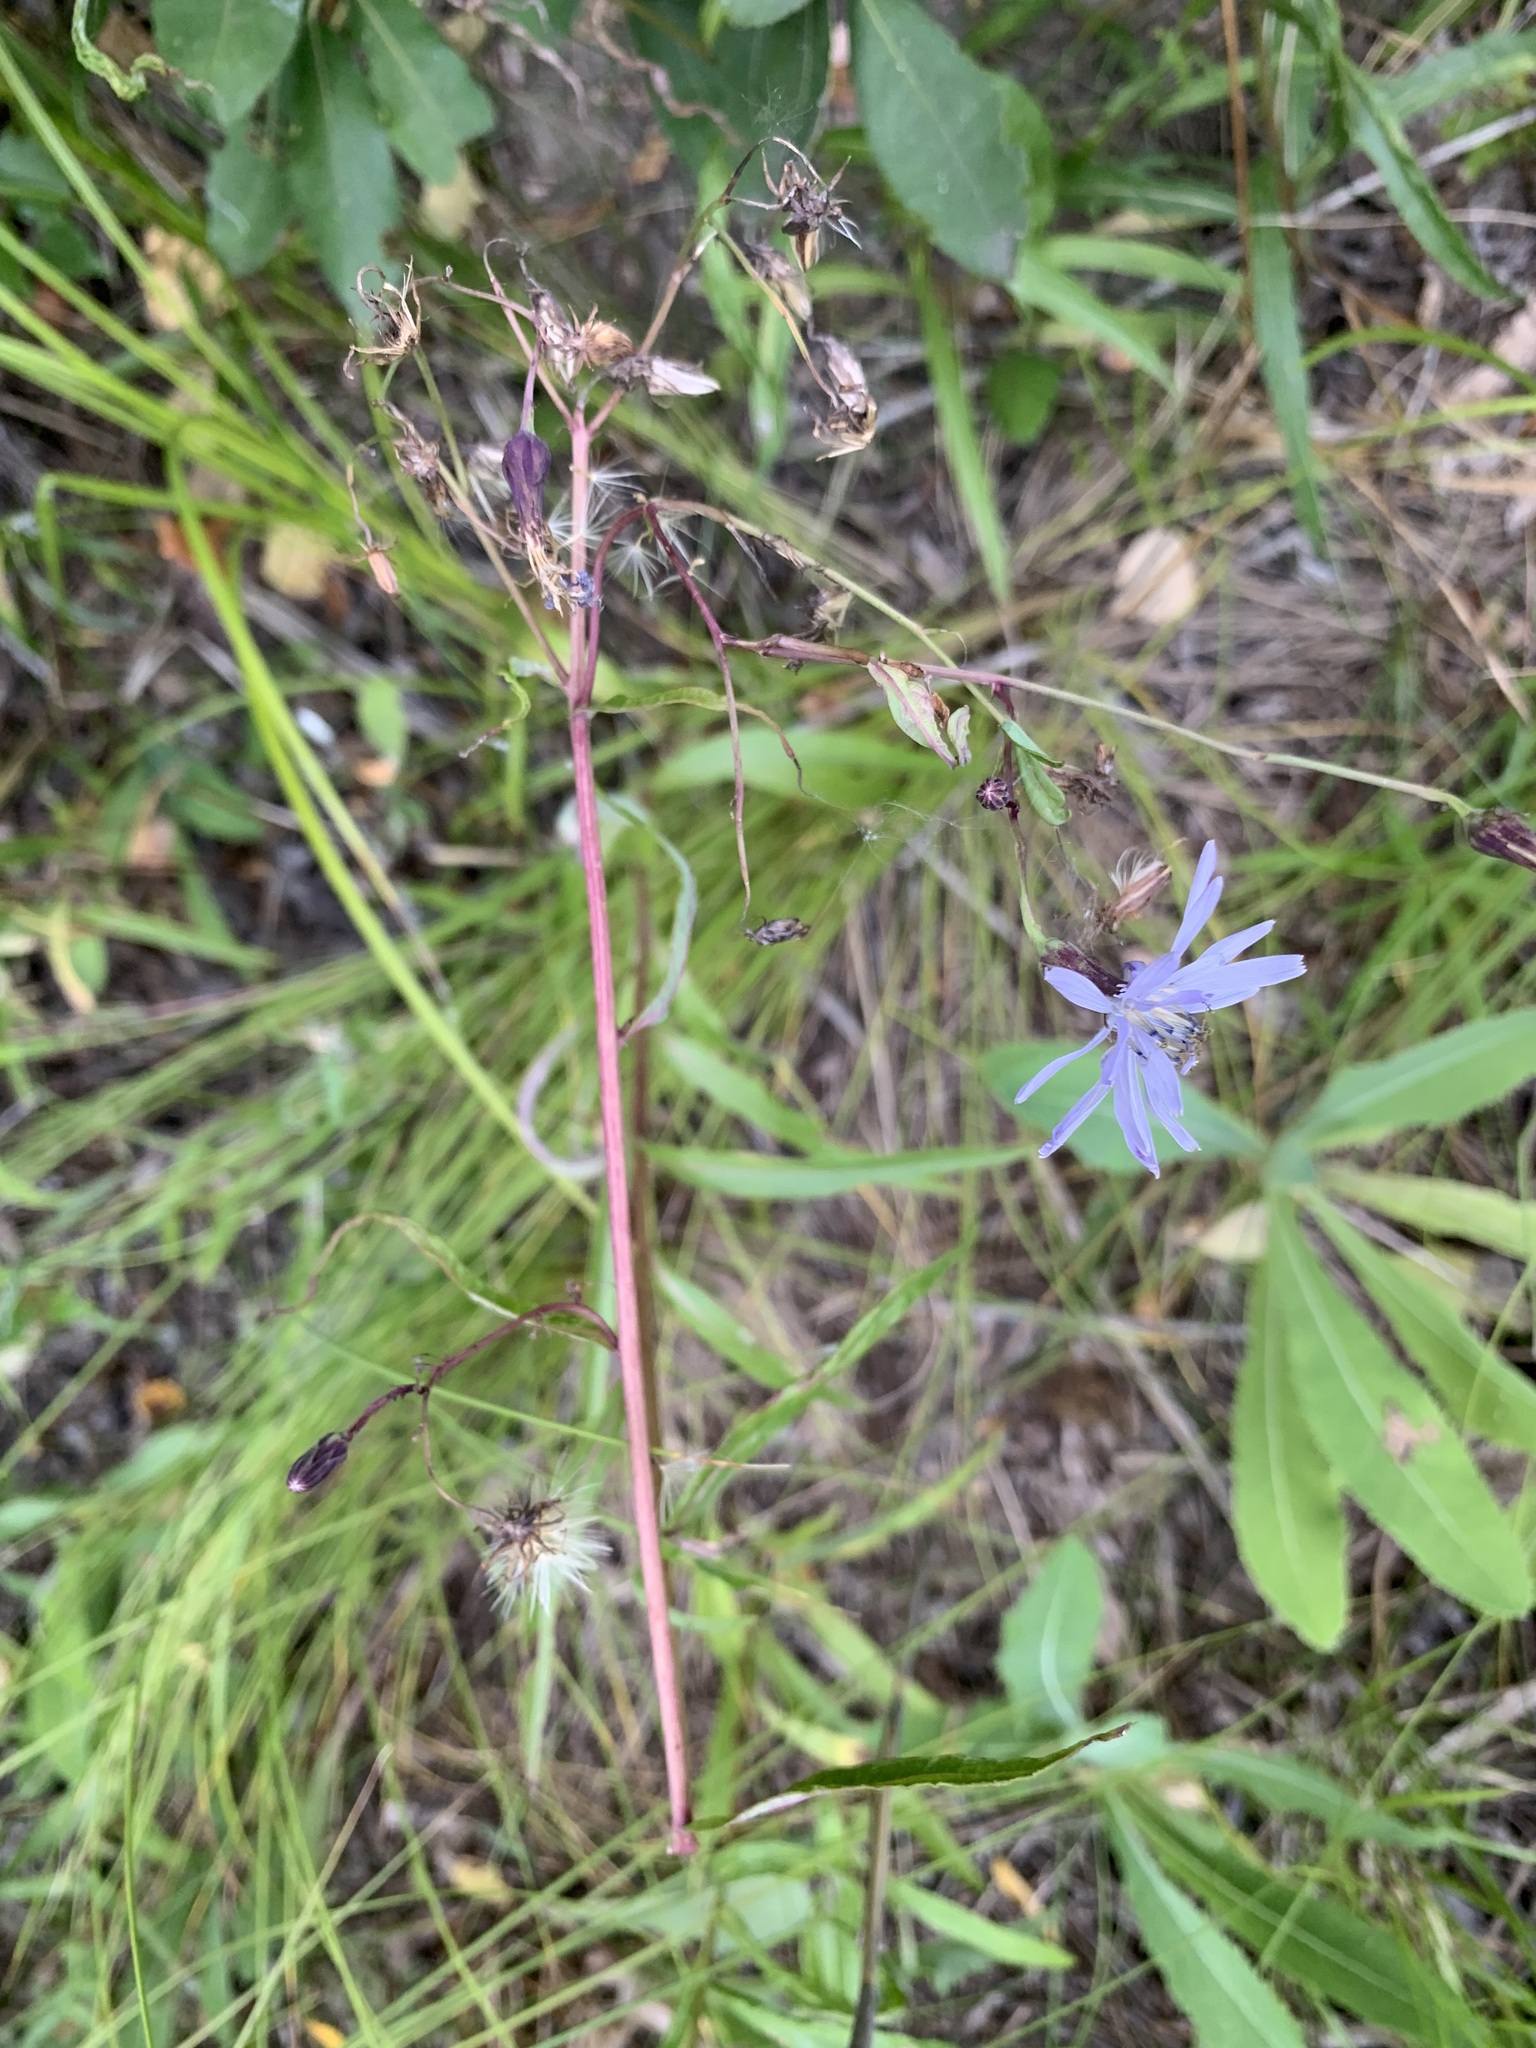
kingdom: Plantae
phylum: Tracheophyta
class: Magnoliopsida
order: Asterales
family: Asteraceae
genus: Lactuca
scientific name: Lactuca sibirica
